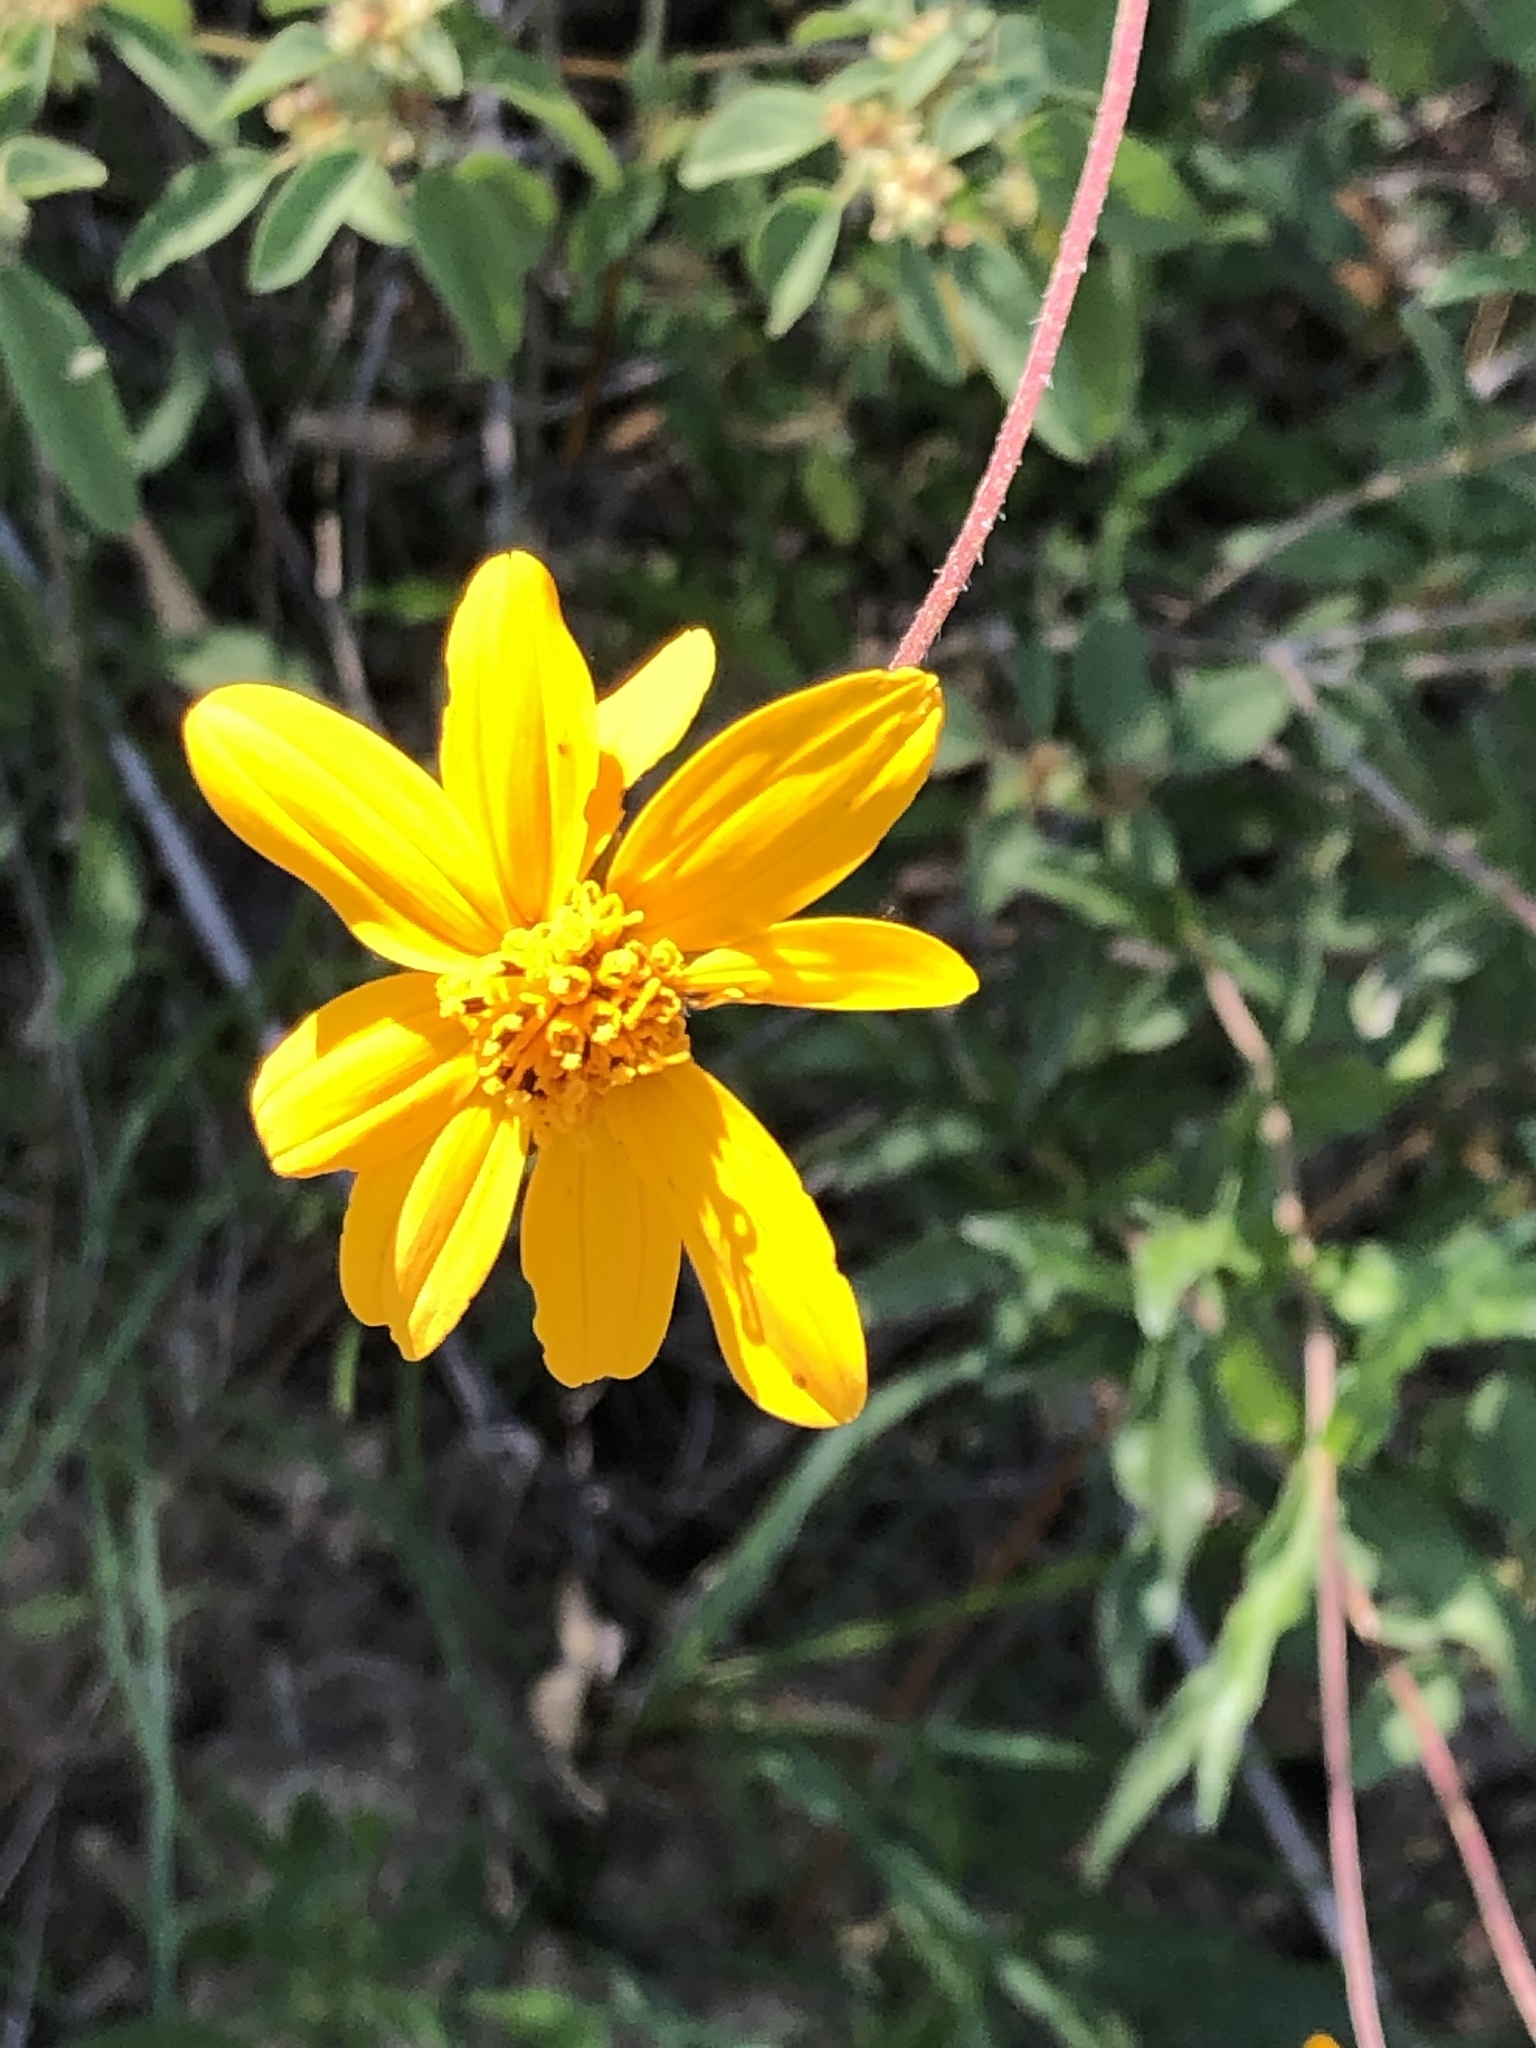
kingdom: Plantae
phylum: Tracheophyta
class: Magnoliopsida
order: Asterales
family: Asteraceae
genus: Wedelia
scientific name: Wedelia acapulcensis
